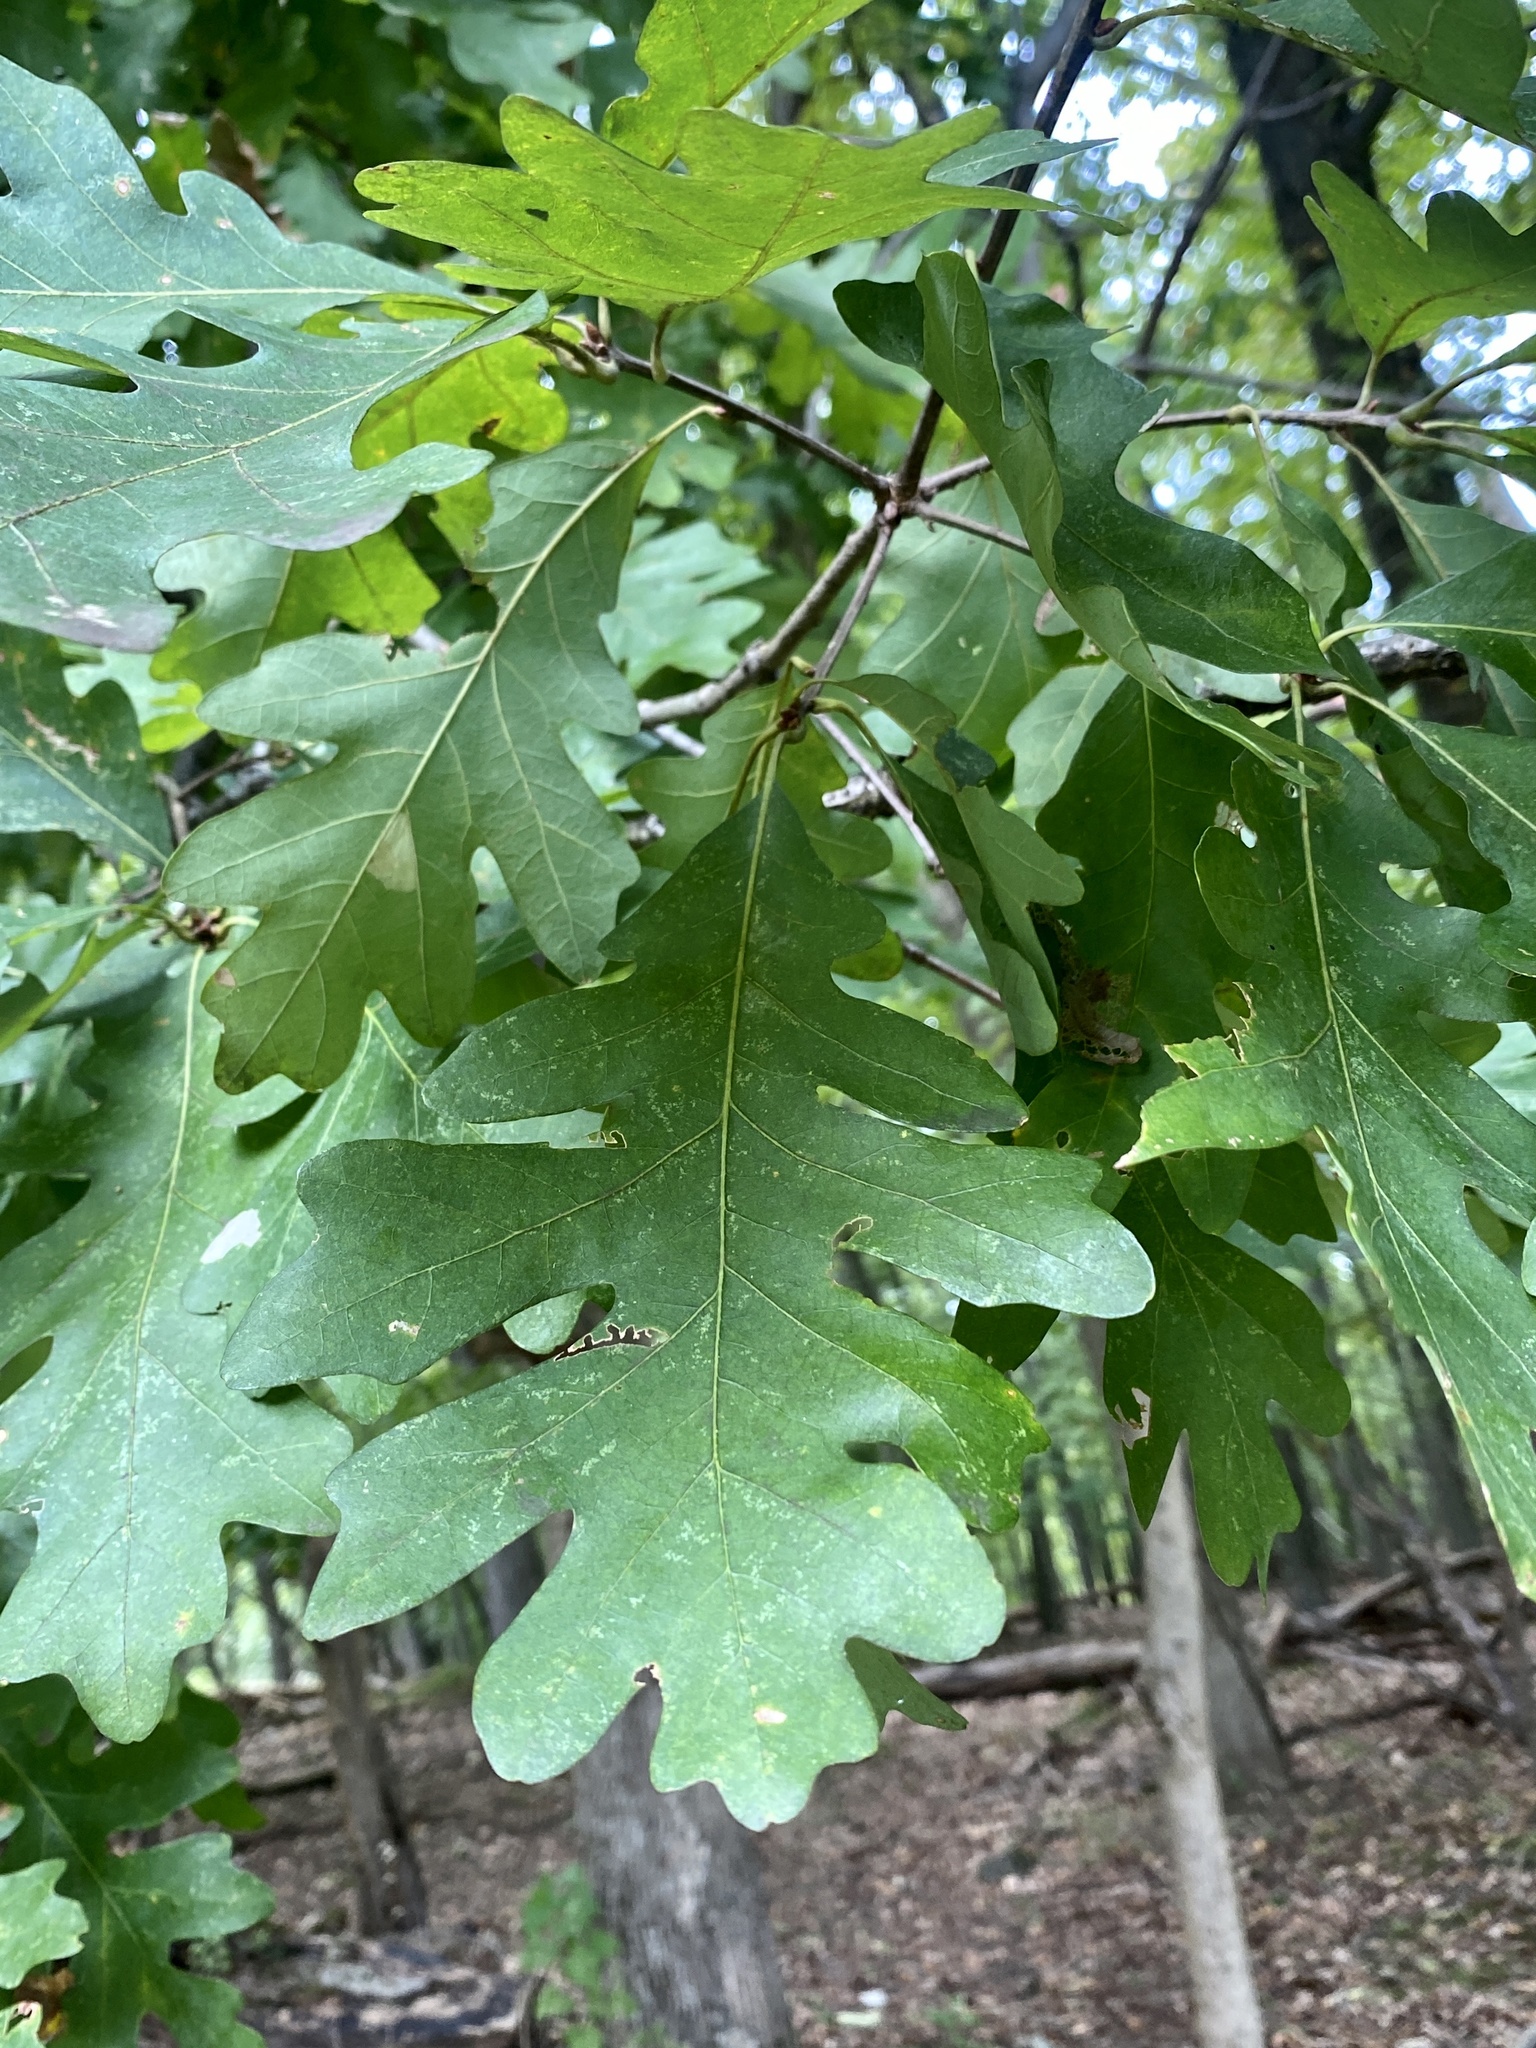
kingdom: Plantae
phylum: Tracheophyta
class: Magnoliopsida
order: Fagales
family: Fagaceae
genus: Quercus
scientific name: Quercus alba
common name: White oak
